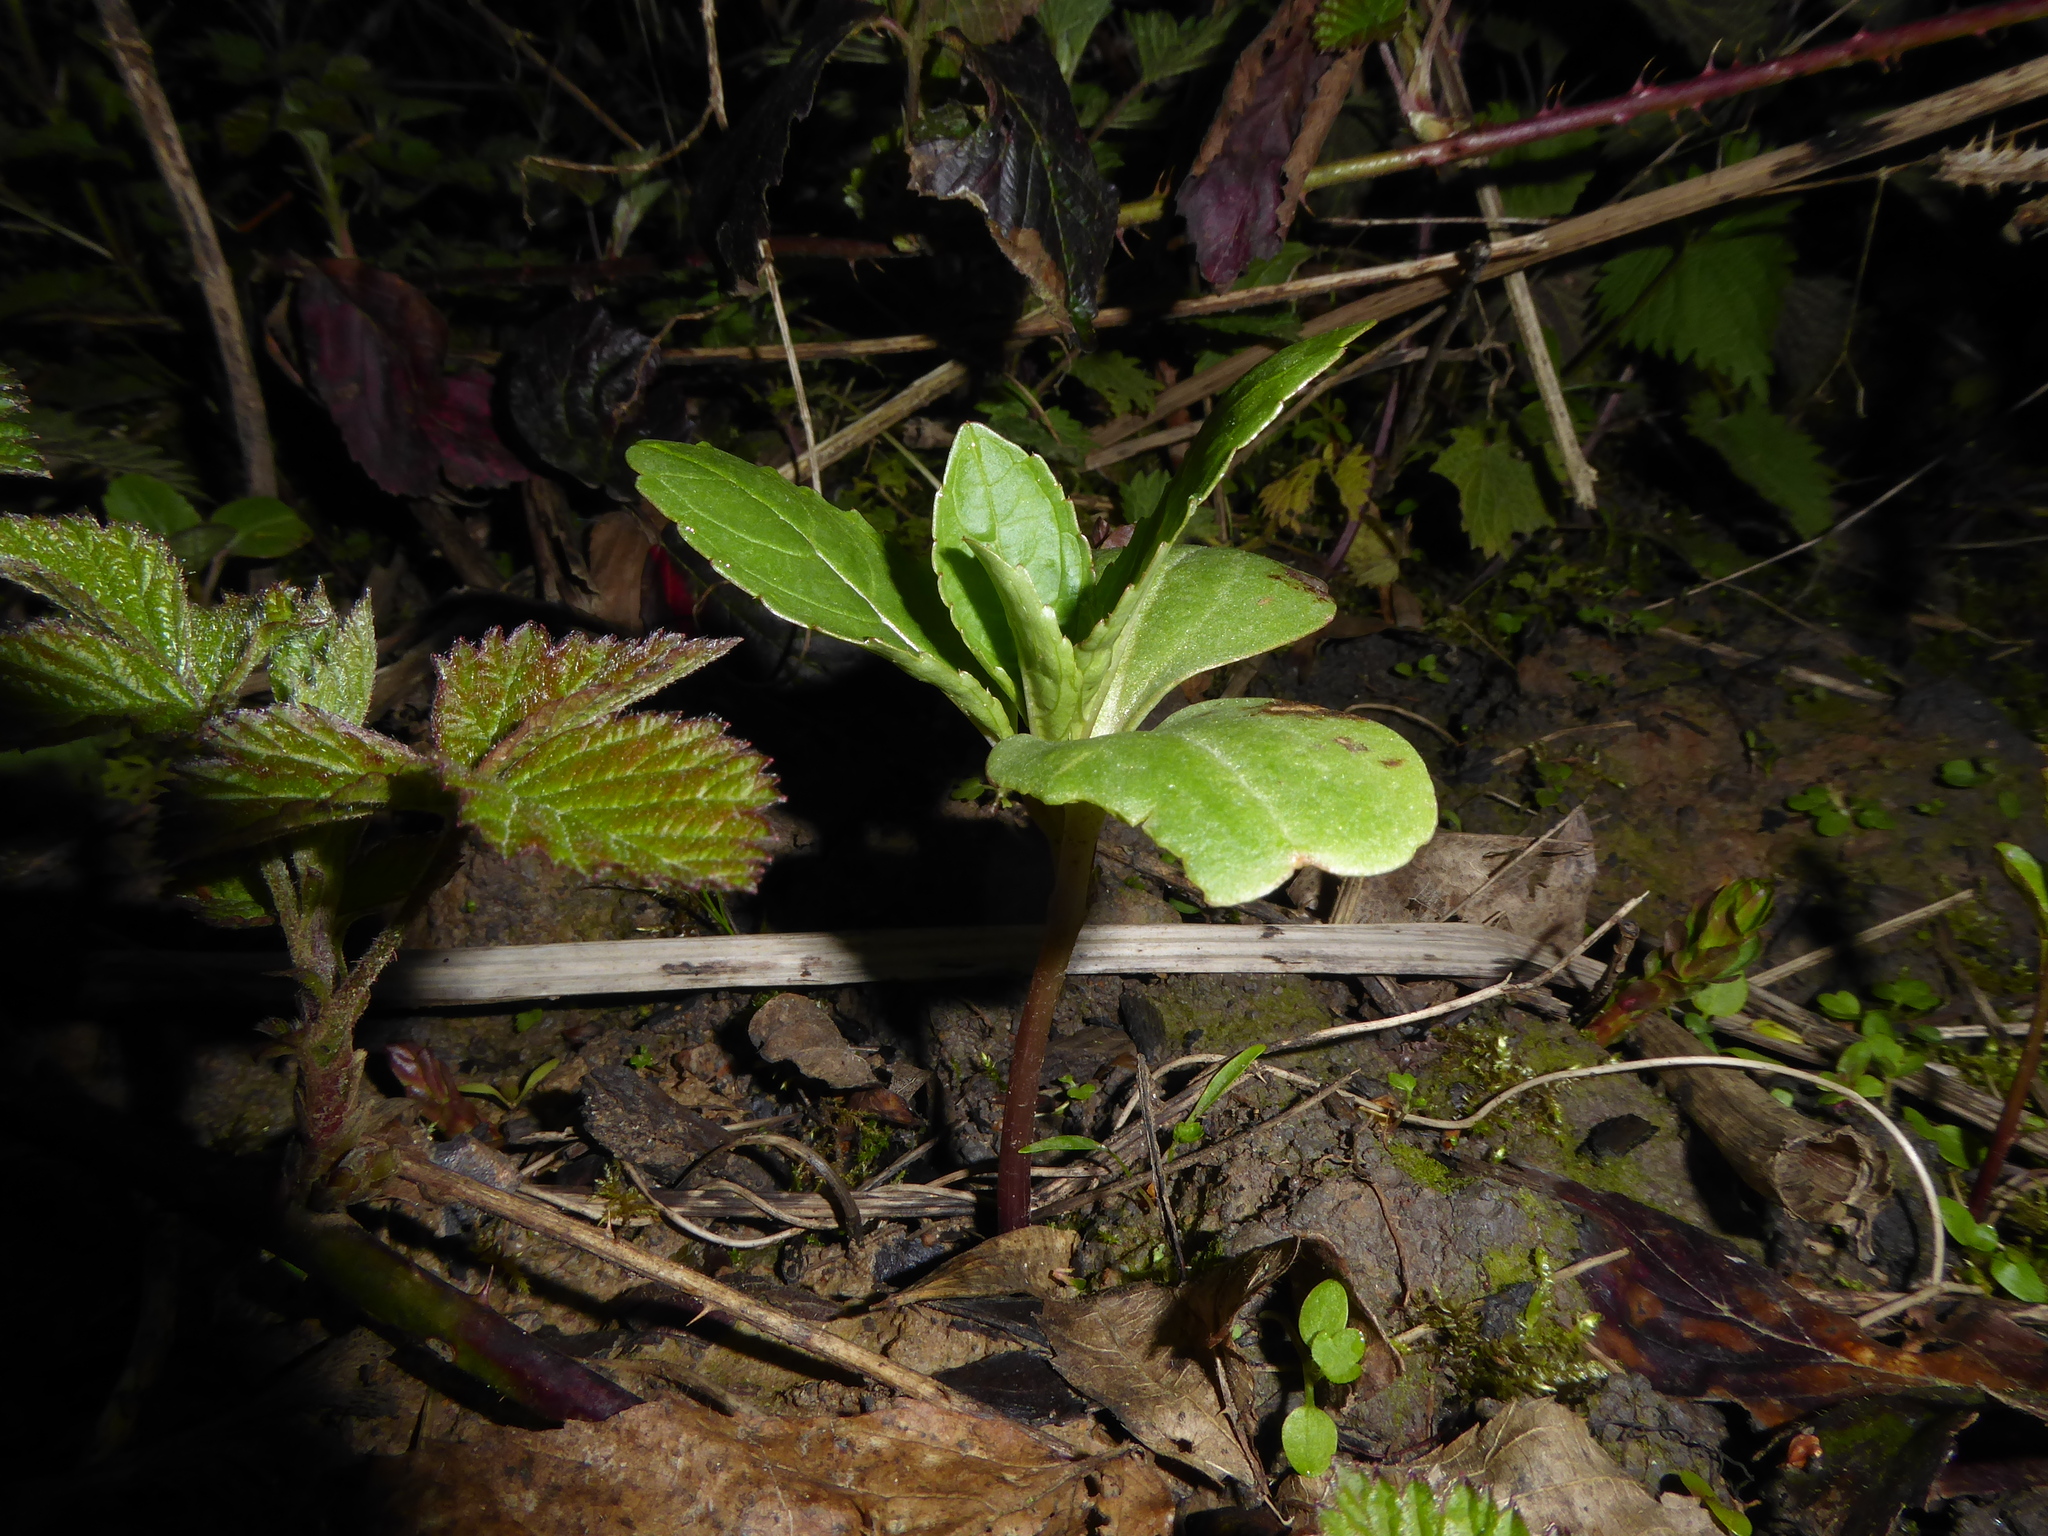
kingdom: Plantae
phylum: Tracheophyta
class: Magnoliopsida
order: Ericales
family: Balsaminaceae
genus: Impatiens
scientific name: Impatiens glandulifera
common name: Himalayan balsam
